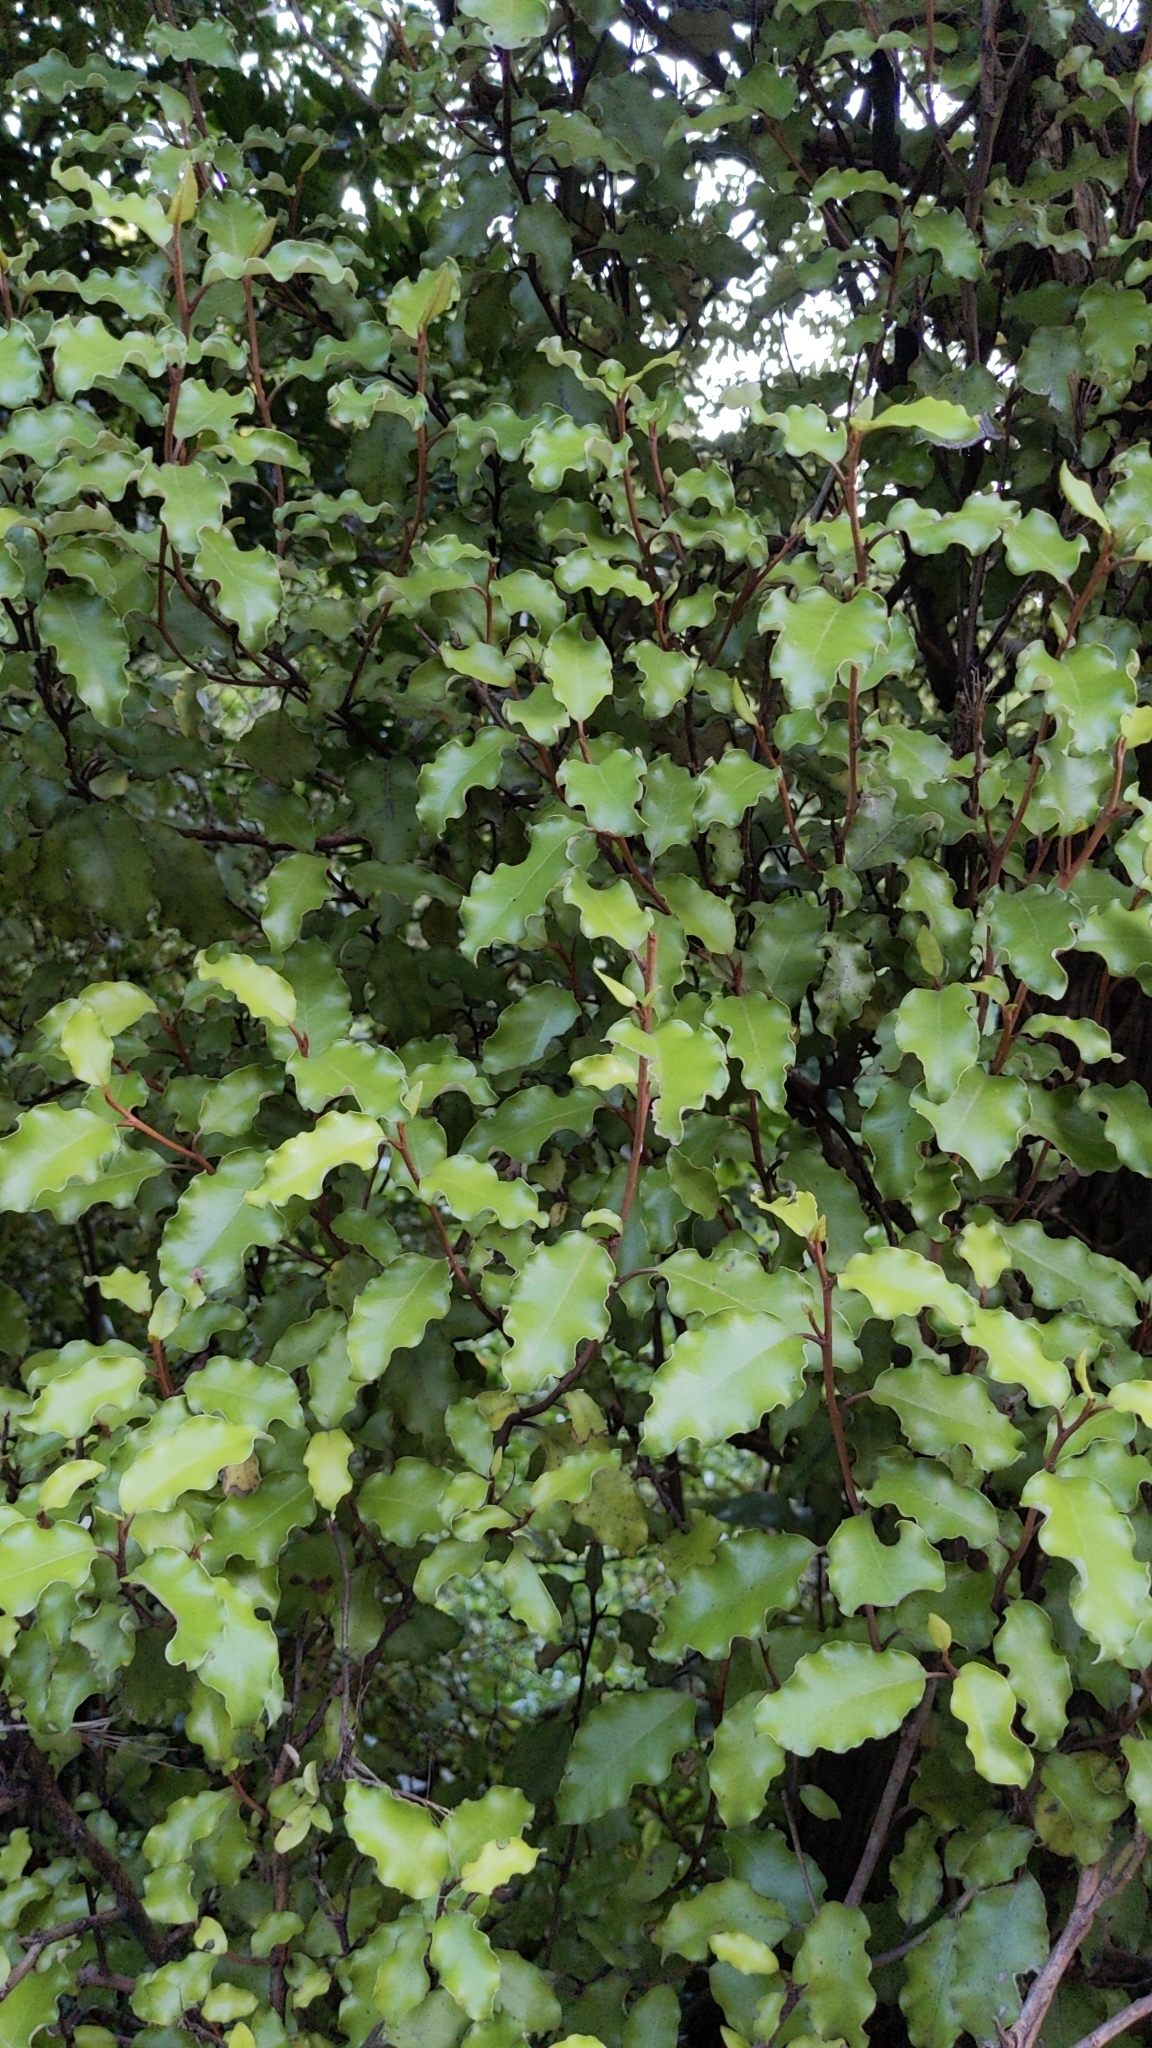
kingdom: Plantae
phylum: Tracheophyta
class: Magnoliopsida
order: Asterales
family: Asteraceae
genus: Olearia
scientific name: Olearia paniculata
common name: Akiraho
